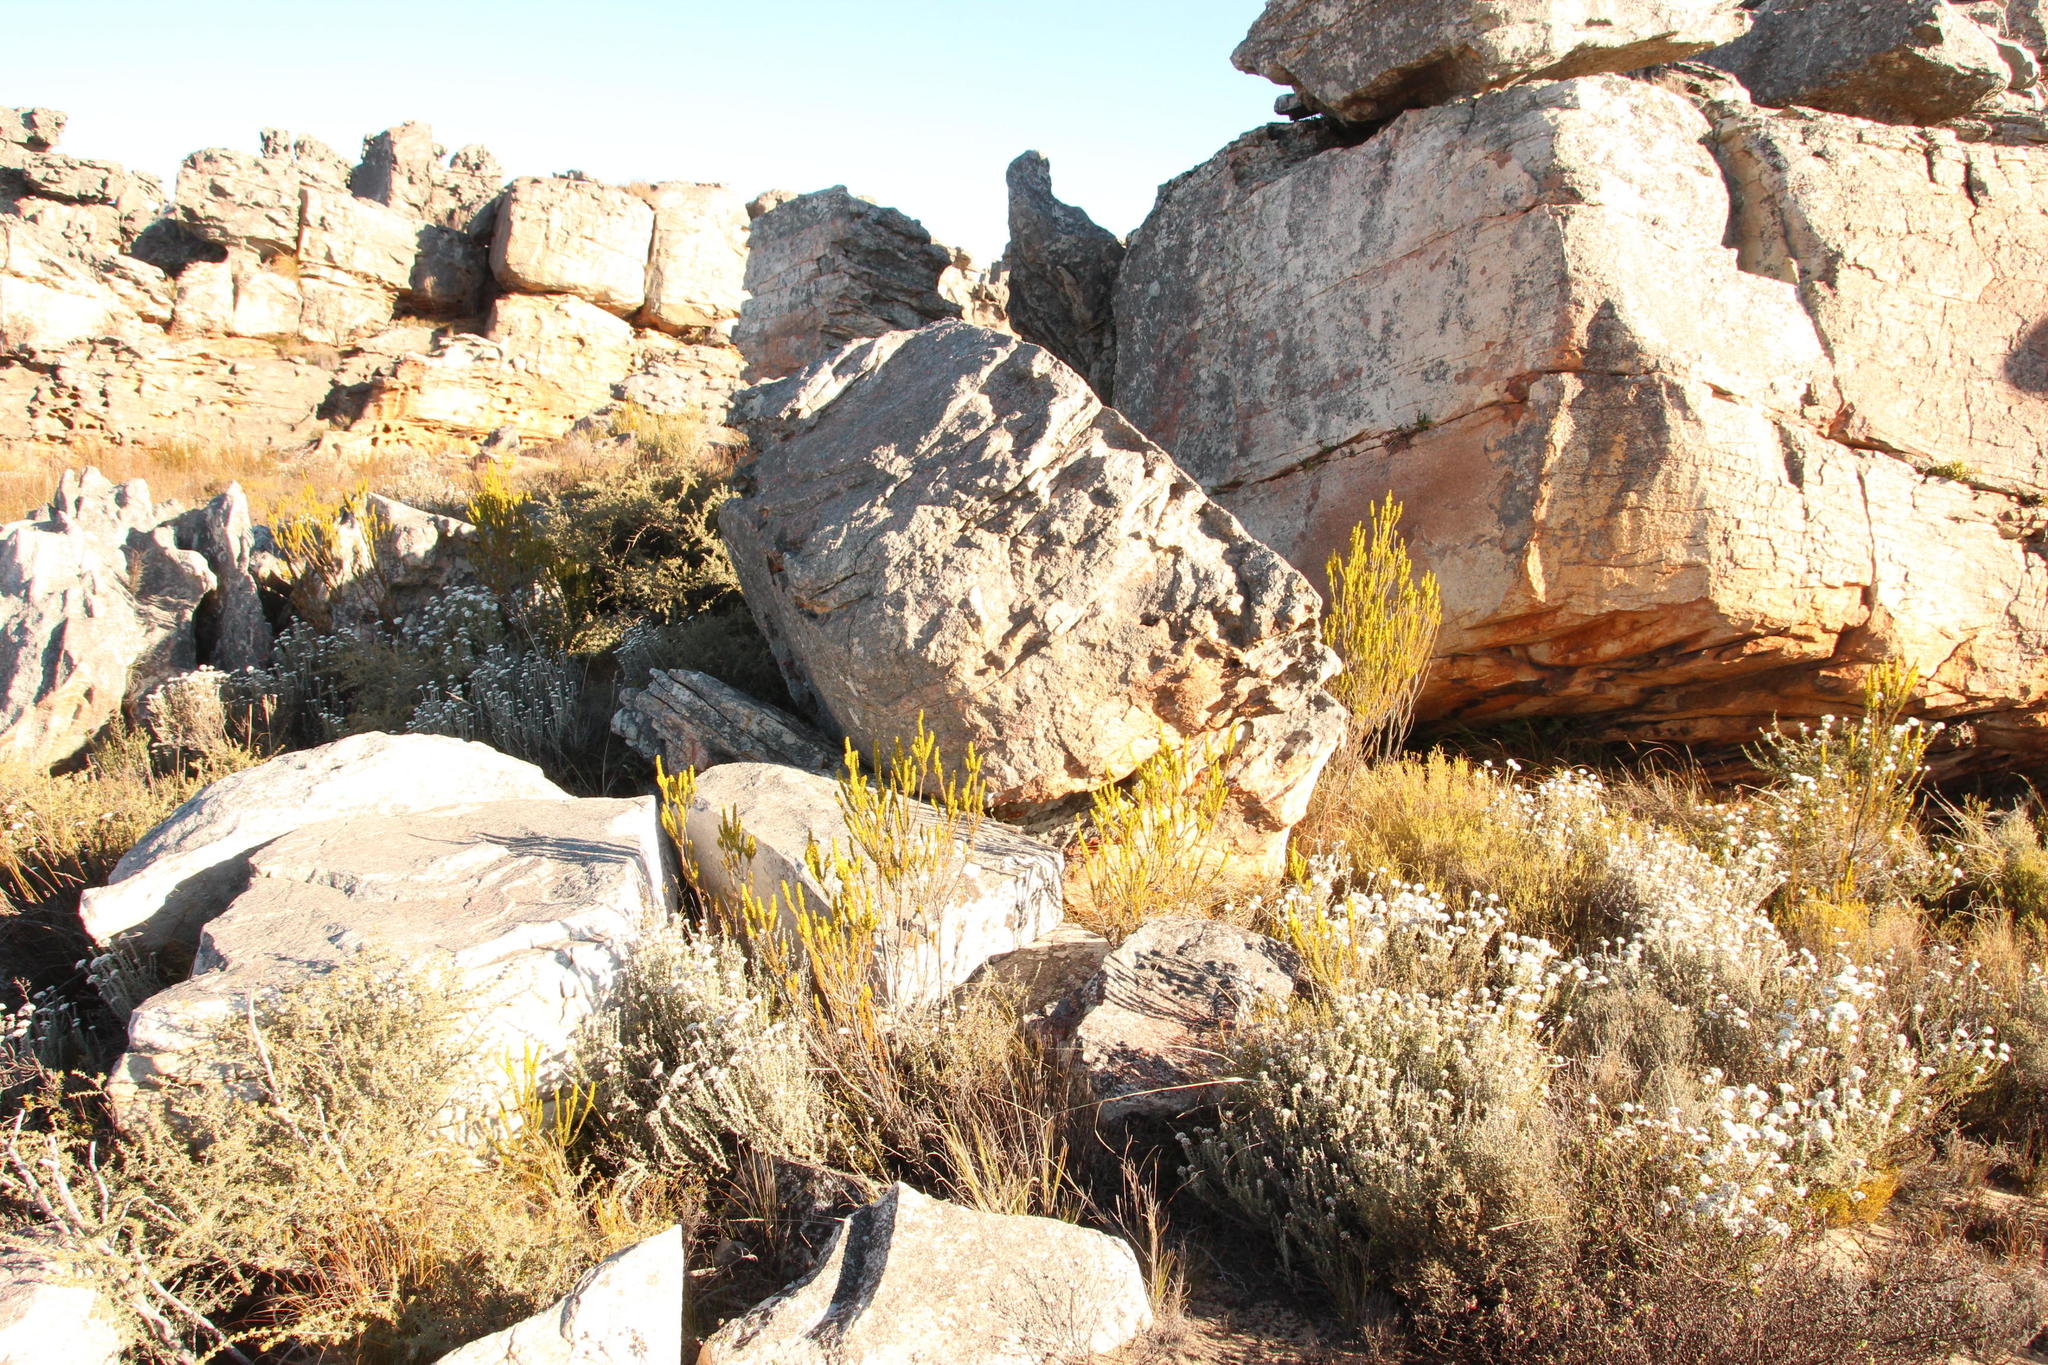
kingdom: Plantae
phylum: Tracheophyta
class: Magnoliopsida
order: Ericales
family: Ericaceae
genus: Erica
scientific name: Erica parilis
